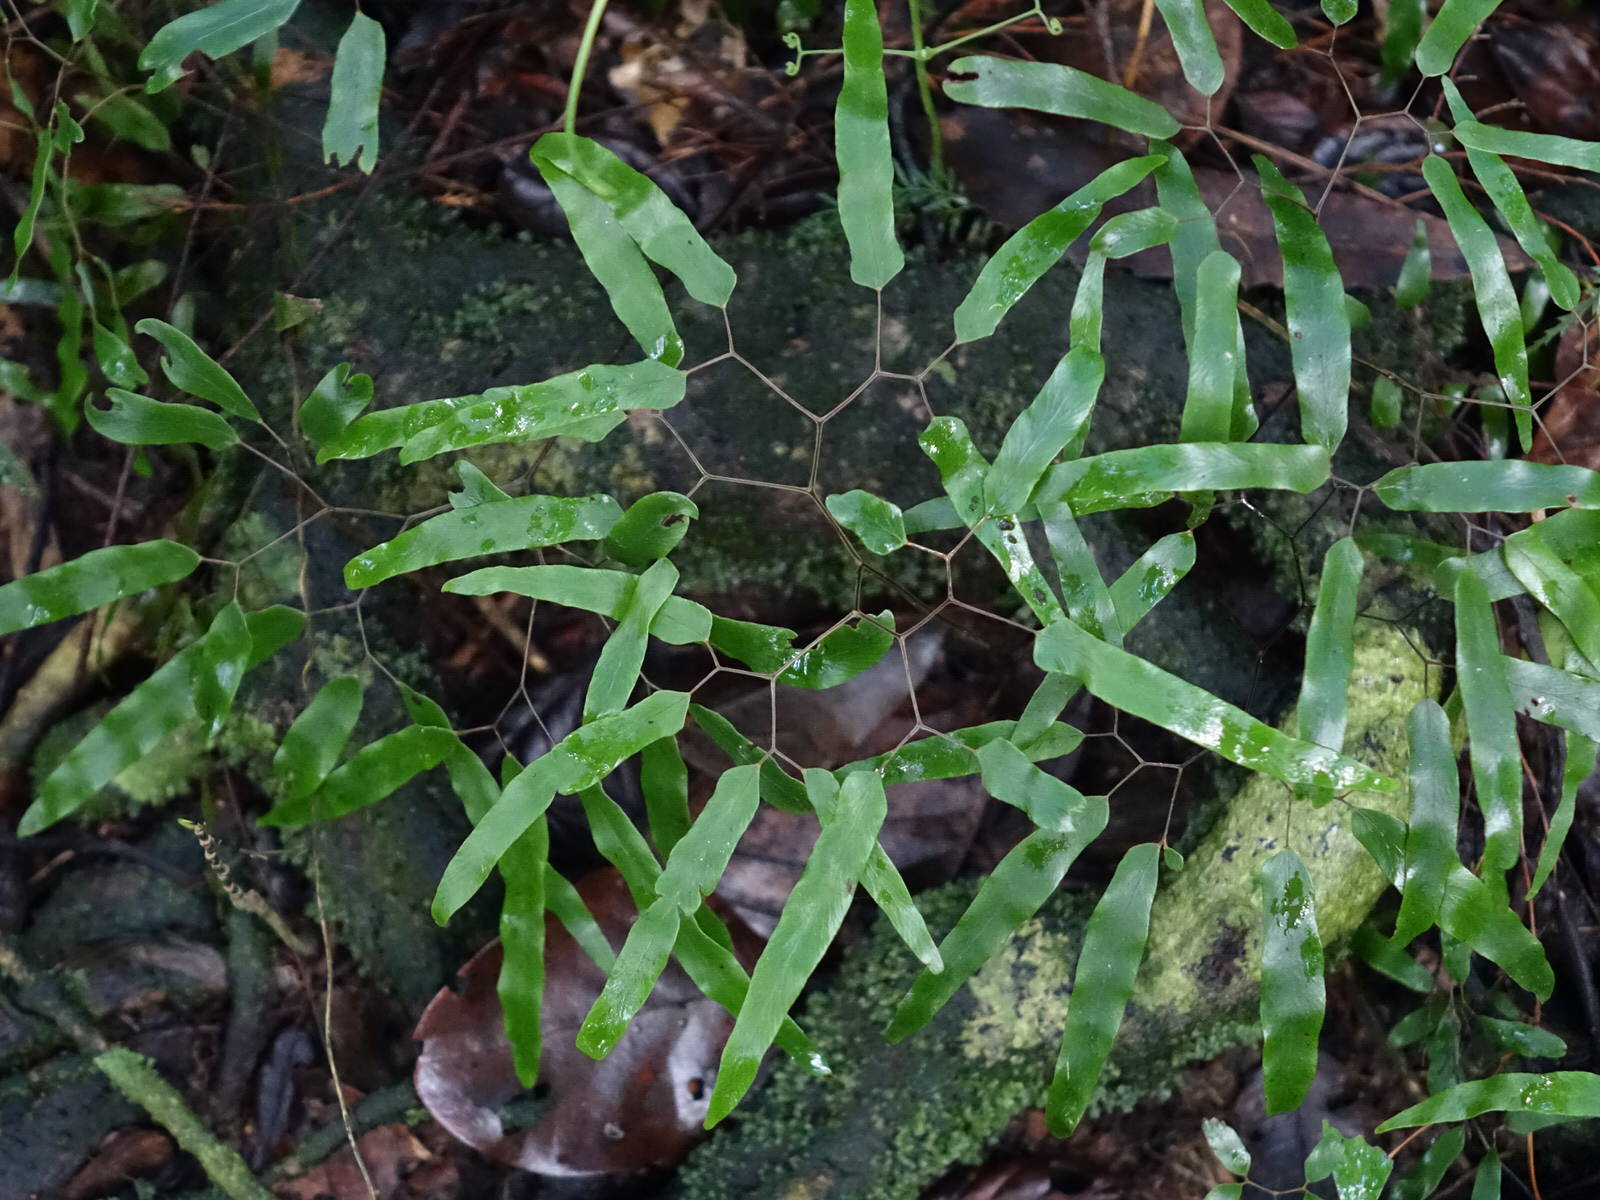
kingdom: Plantae
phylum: Tracheophyta
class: Polypodiopsida
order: Schizaeales
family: Lygodiaceae
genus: Lygodium
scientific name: Lygodium articulatum
